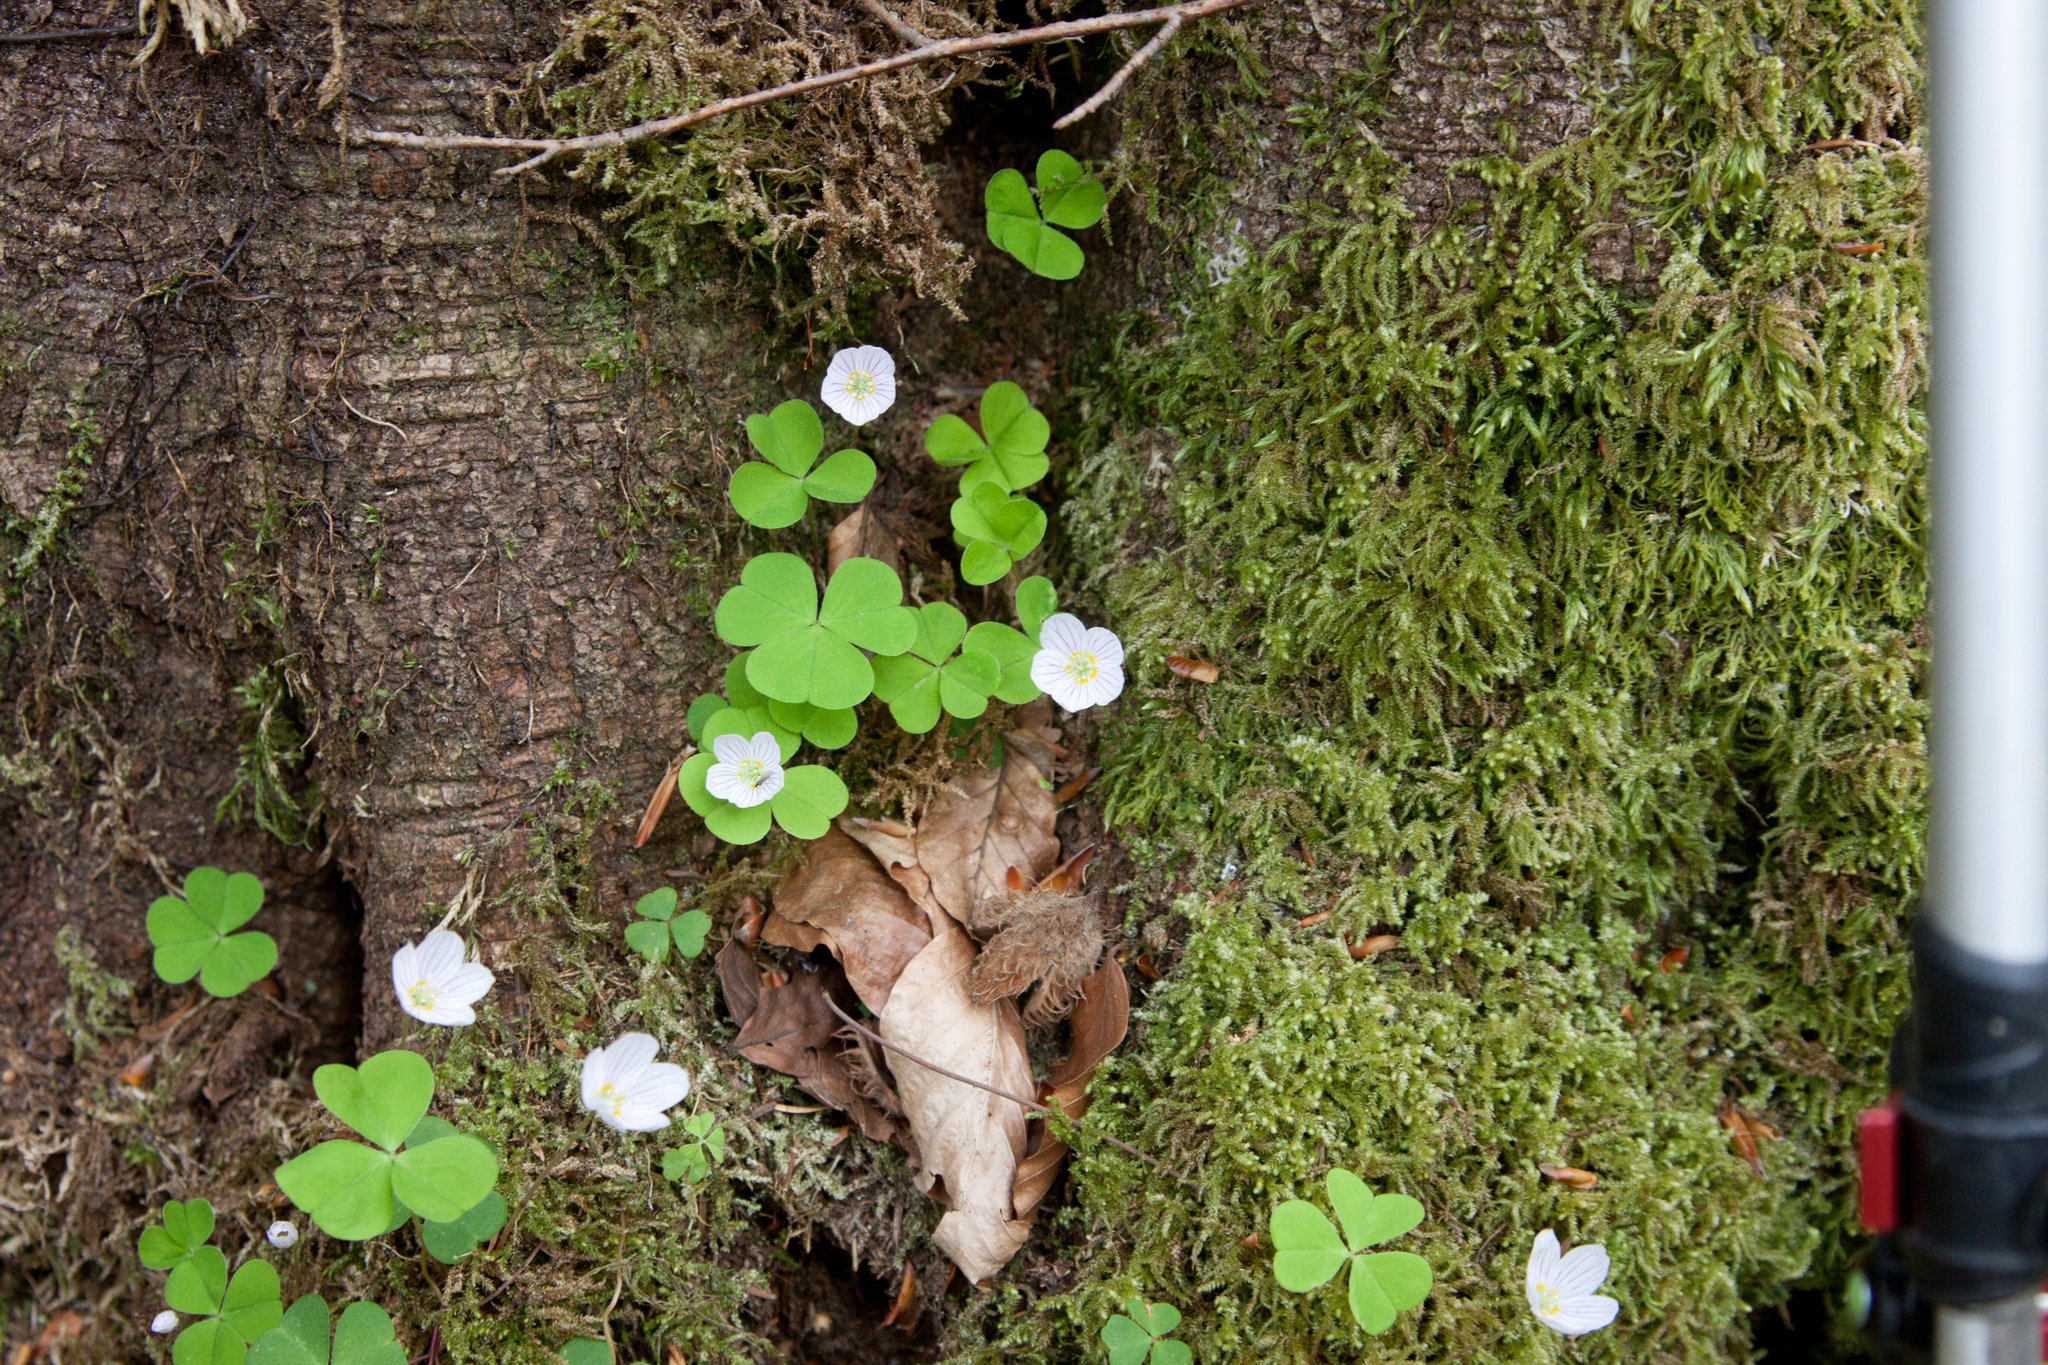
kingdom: Plantae
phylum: Tracheophyta
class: Magnoliopsida
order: Oxalidales
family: Oxalidaceae
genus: Oxalis
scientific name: Oxalis acetosella
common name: Wood-sorrel
